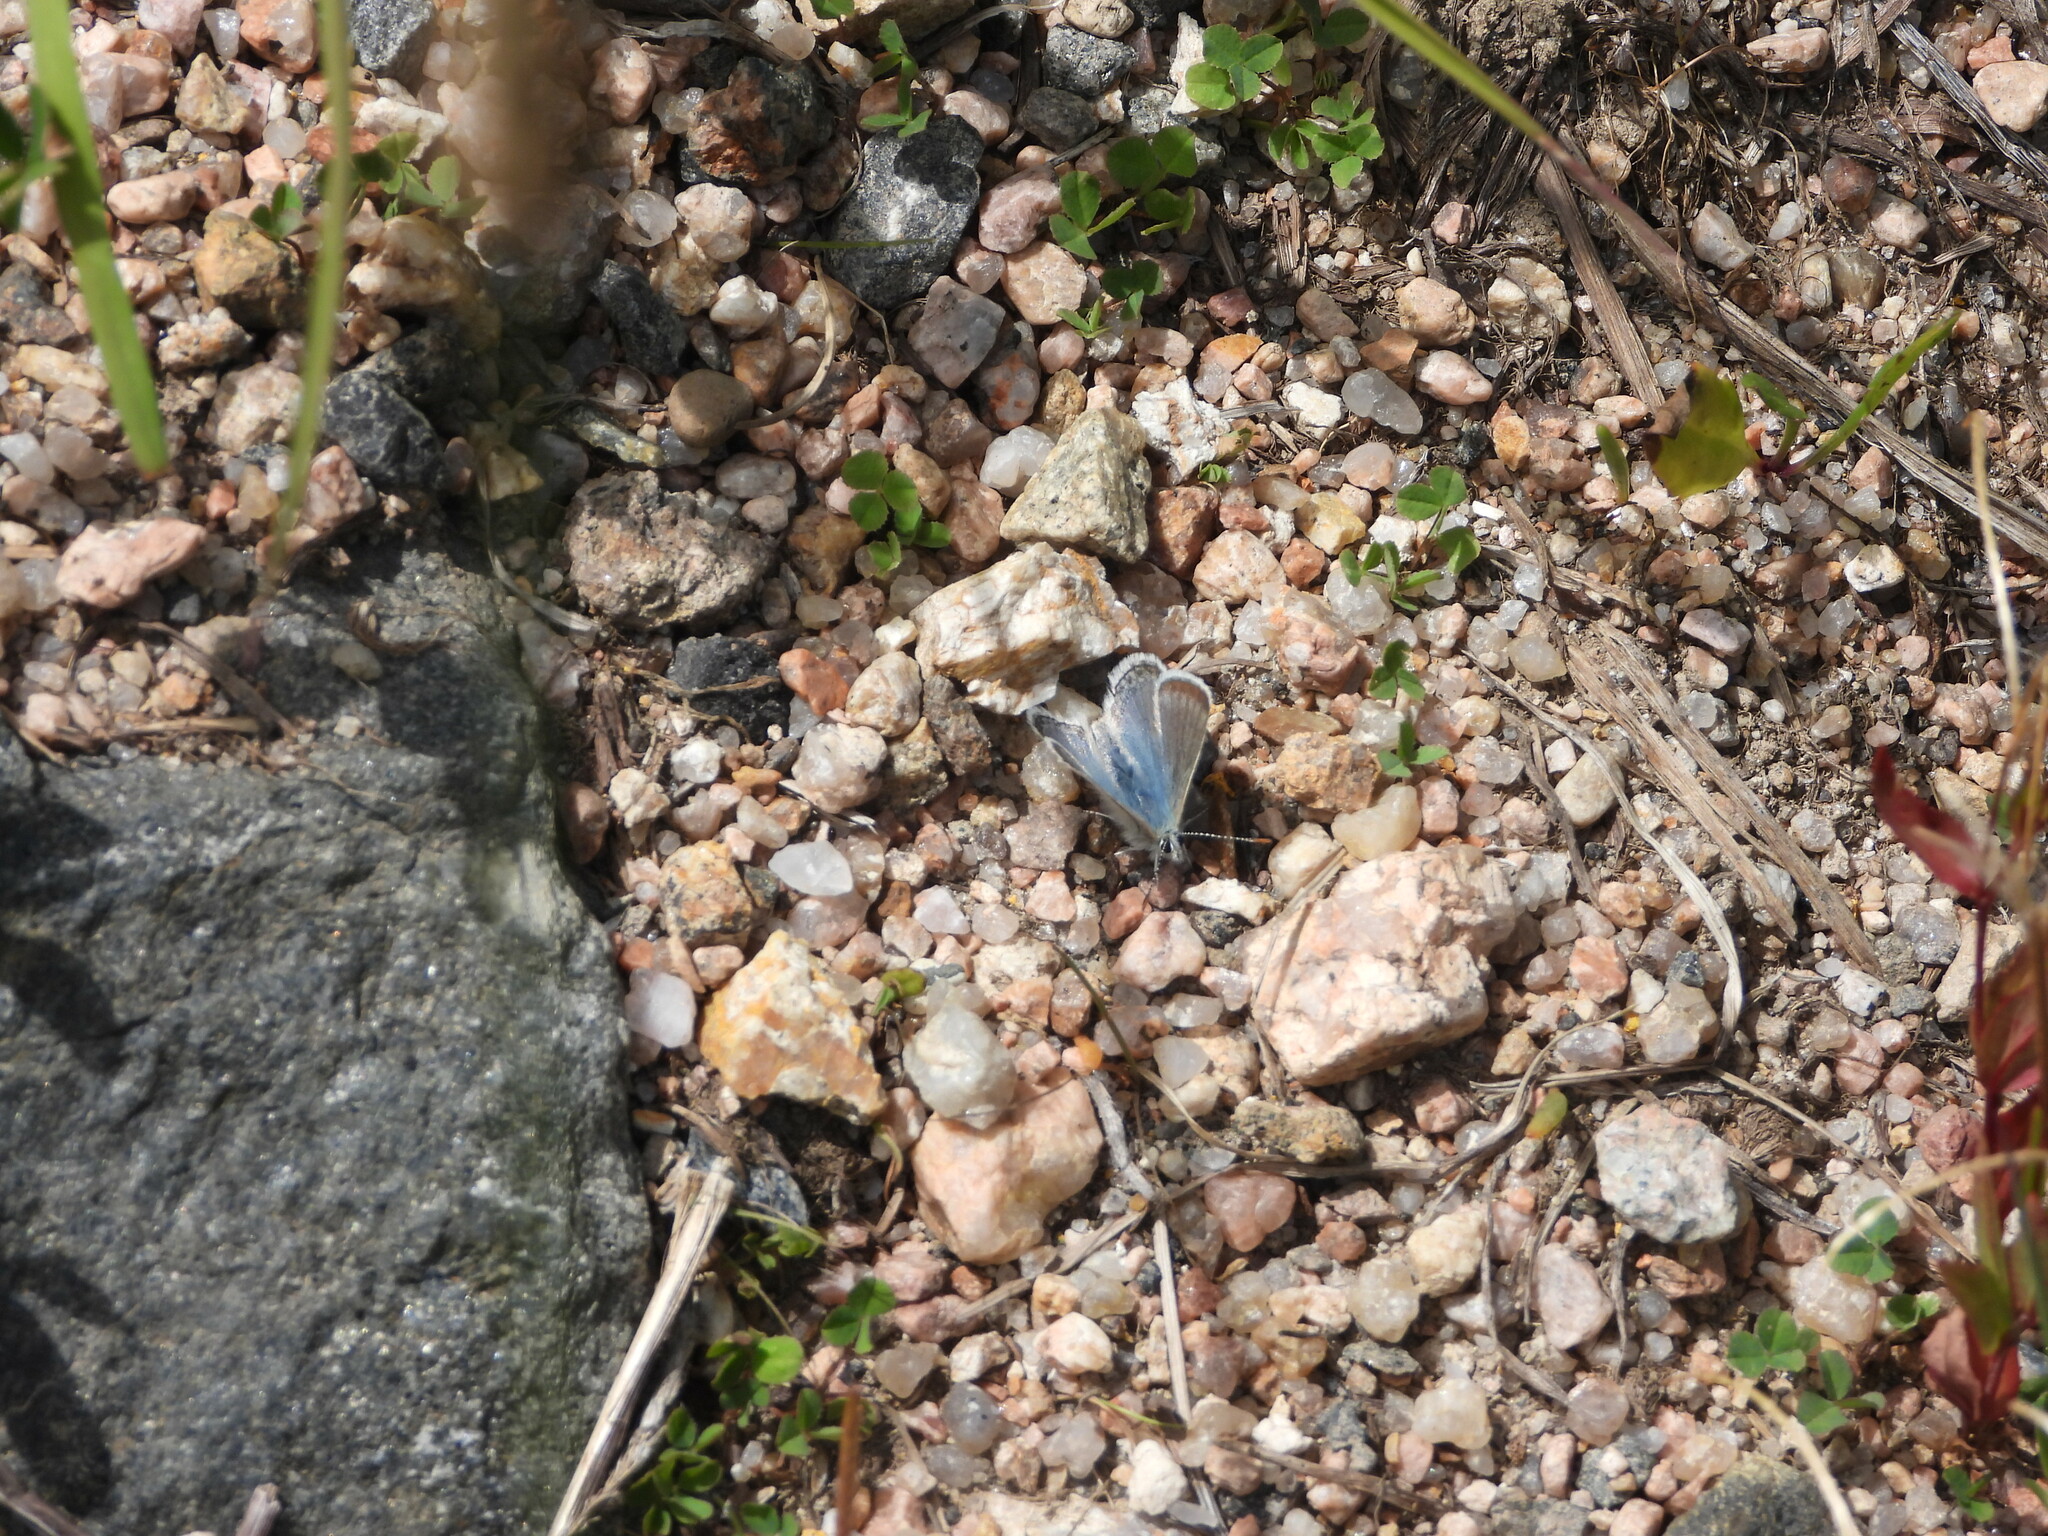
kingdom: Animalia
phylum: Arthropoda
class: Insecta
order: Lepidoptera
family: Lycaenidae
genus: Agriades
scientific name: Agriades glandon
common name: Glandon blue
